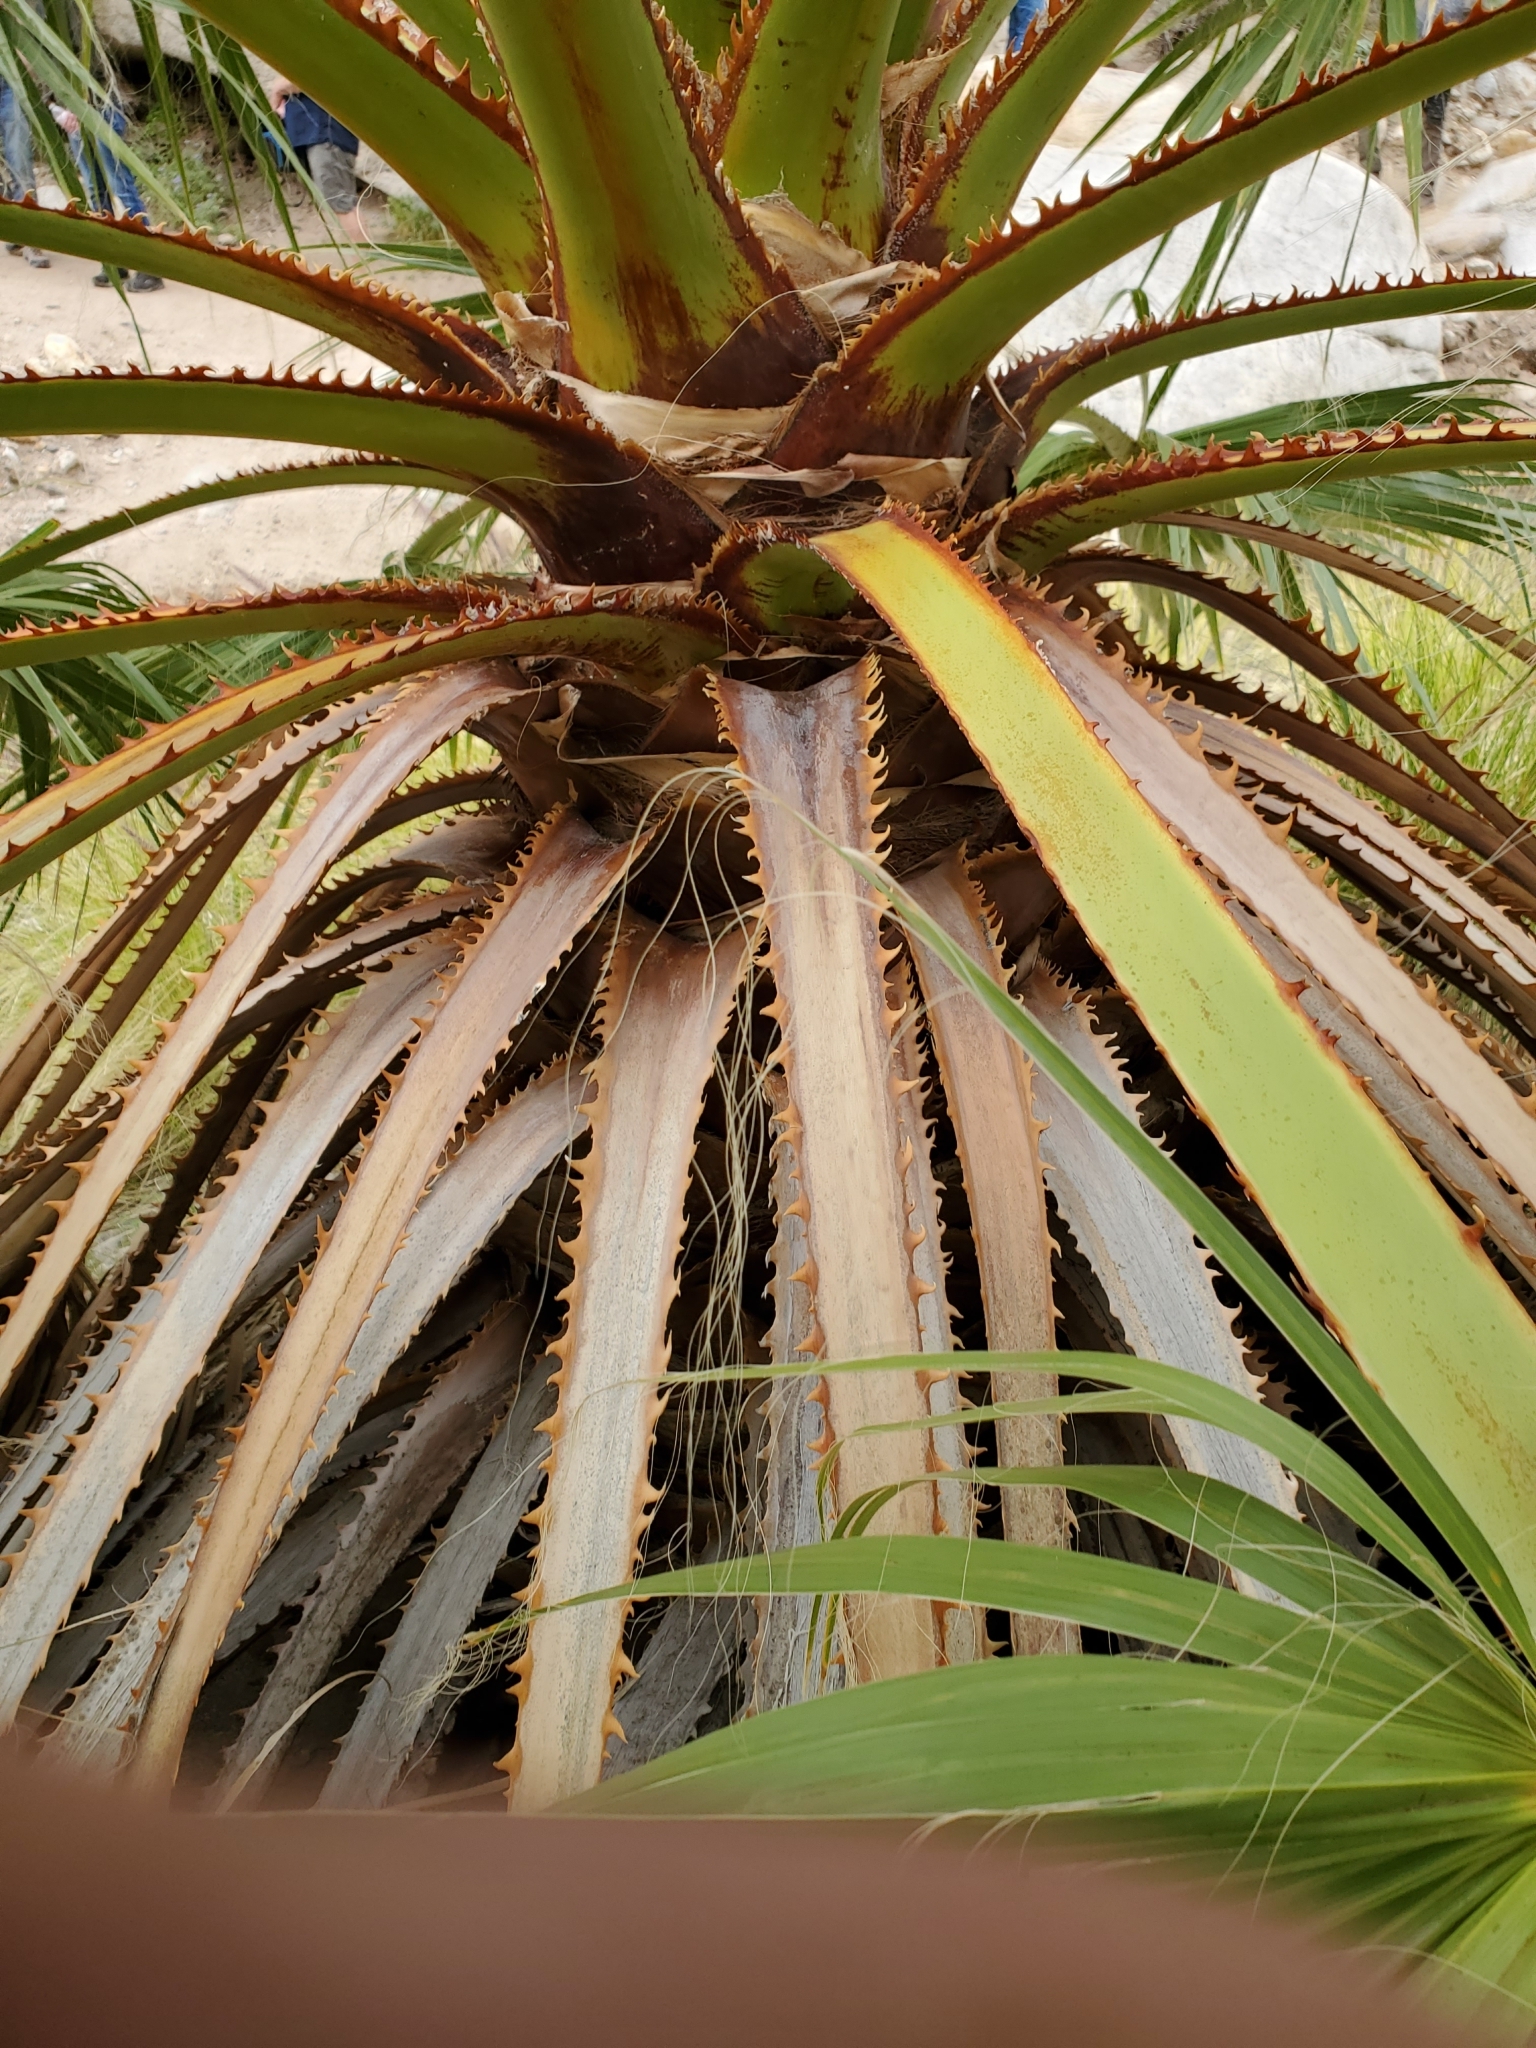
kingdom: Plantae
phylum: Tracheophyta
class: Liliopsida
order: Arecales
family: Arecaceae
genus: Washingtonia
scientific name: Washingtonia filifera
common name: California fan palm
